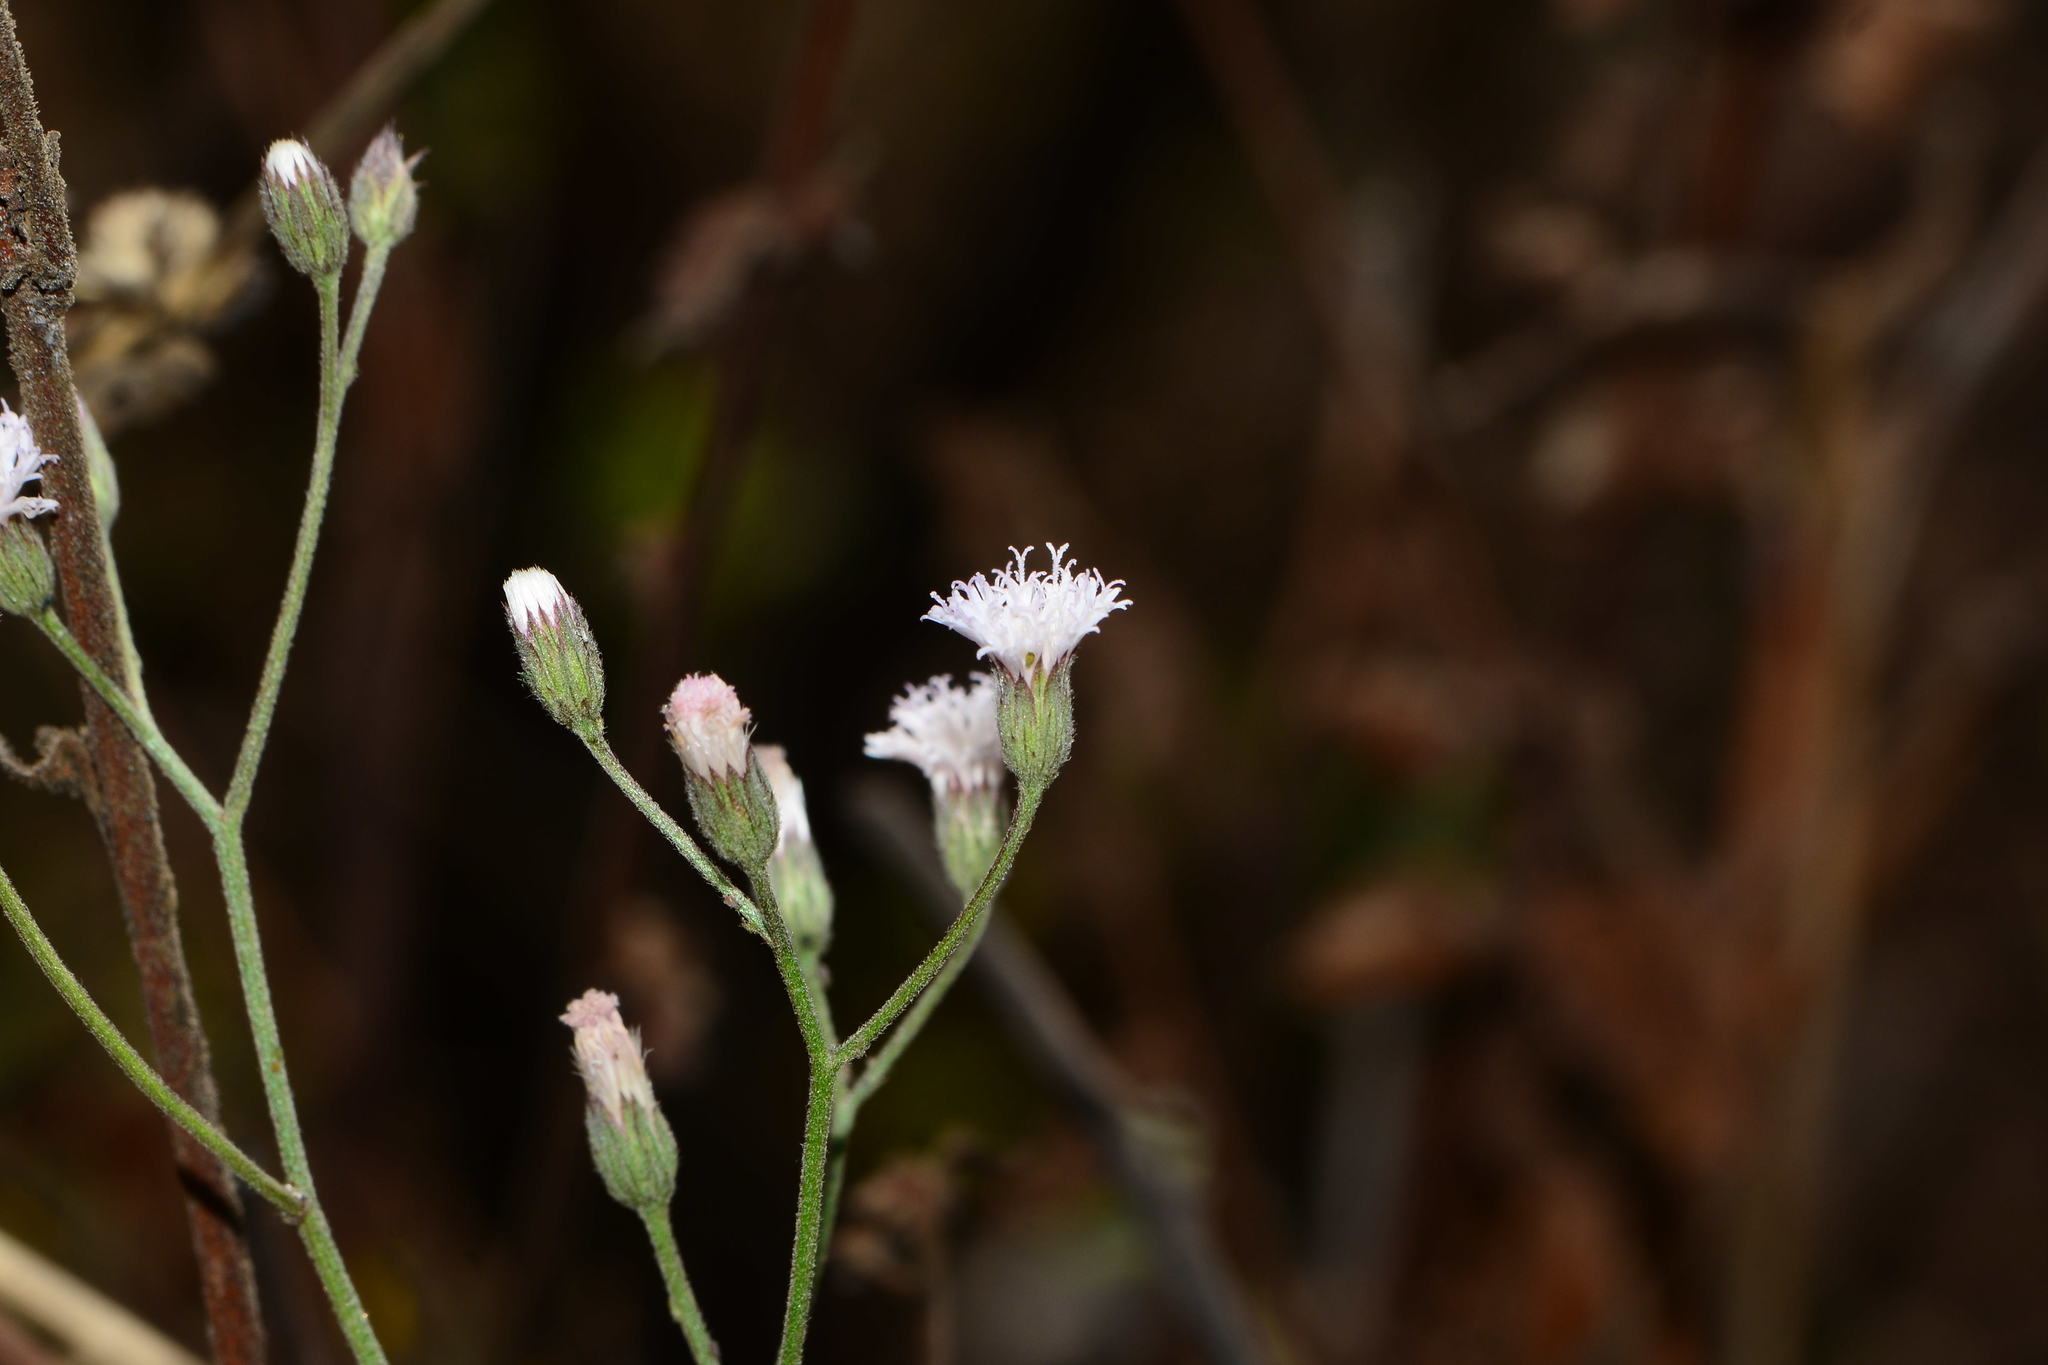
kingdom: Plantae
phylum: Tracheophyta
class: Magnoliopsida
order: Asterales
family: Asteraceae
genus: Cyanthillium
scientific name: Cyanthillium cinereum
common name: Little ironweed
